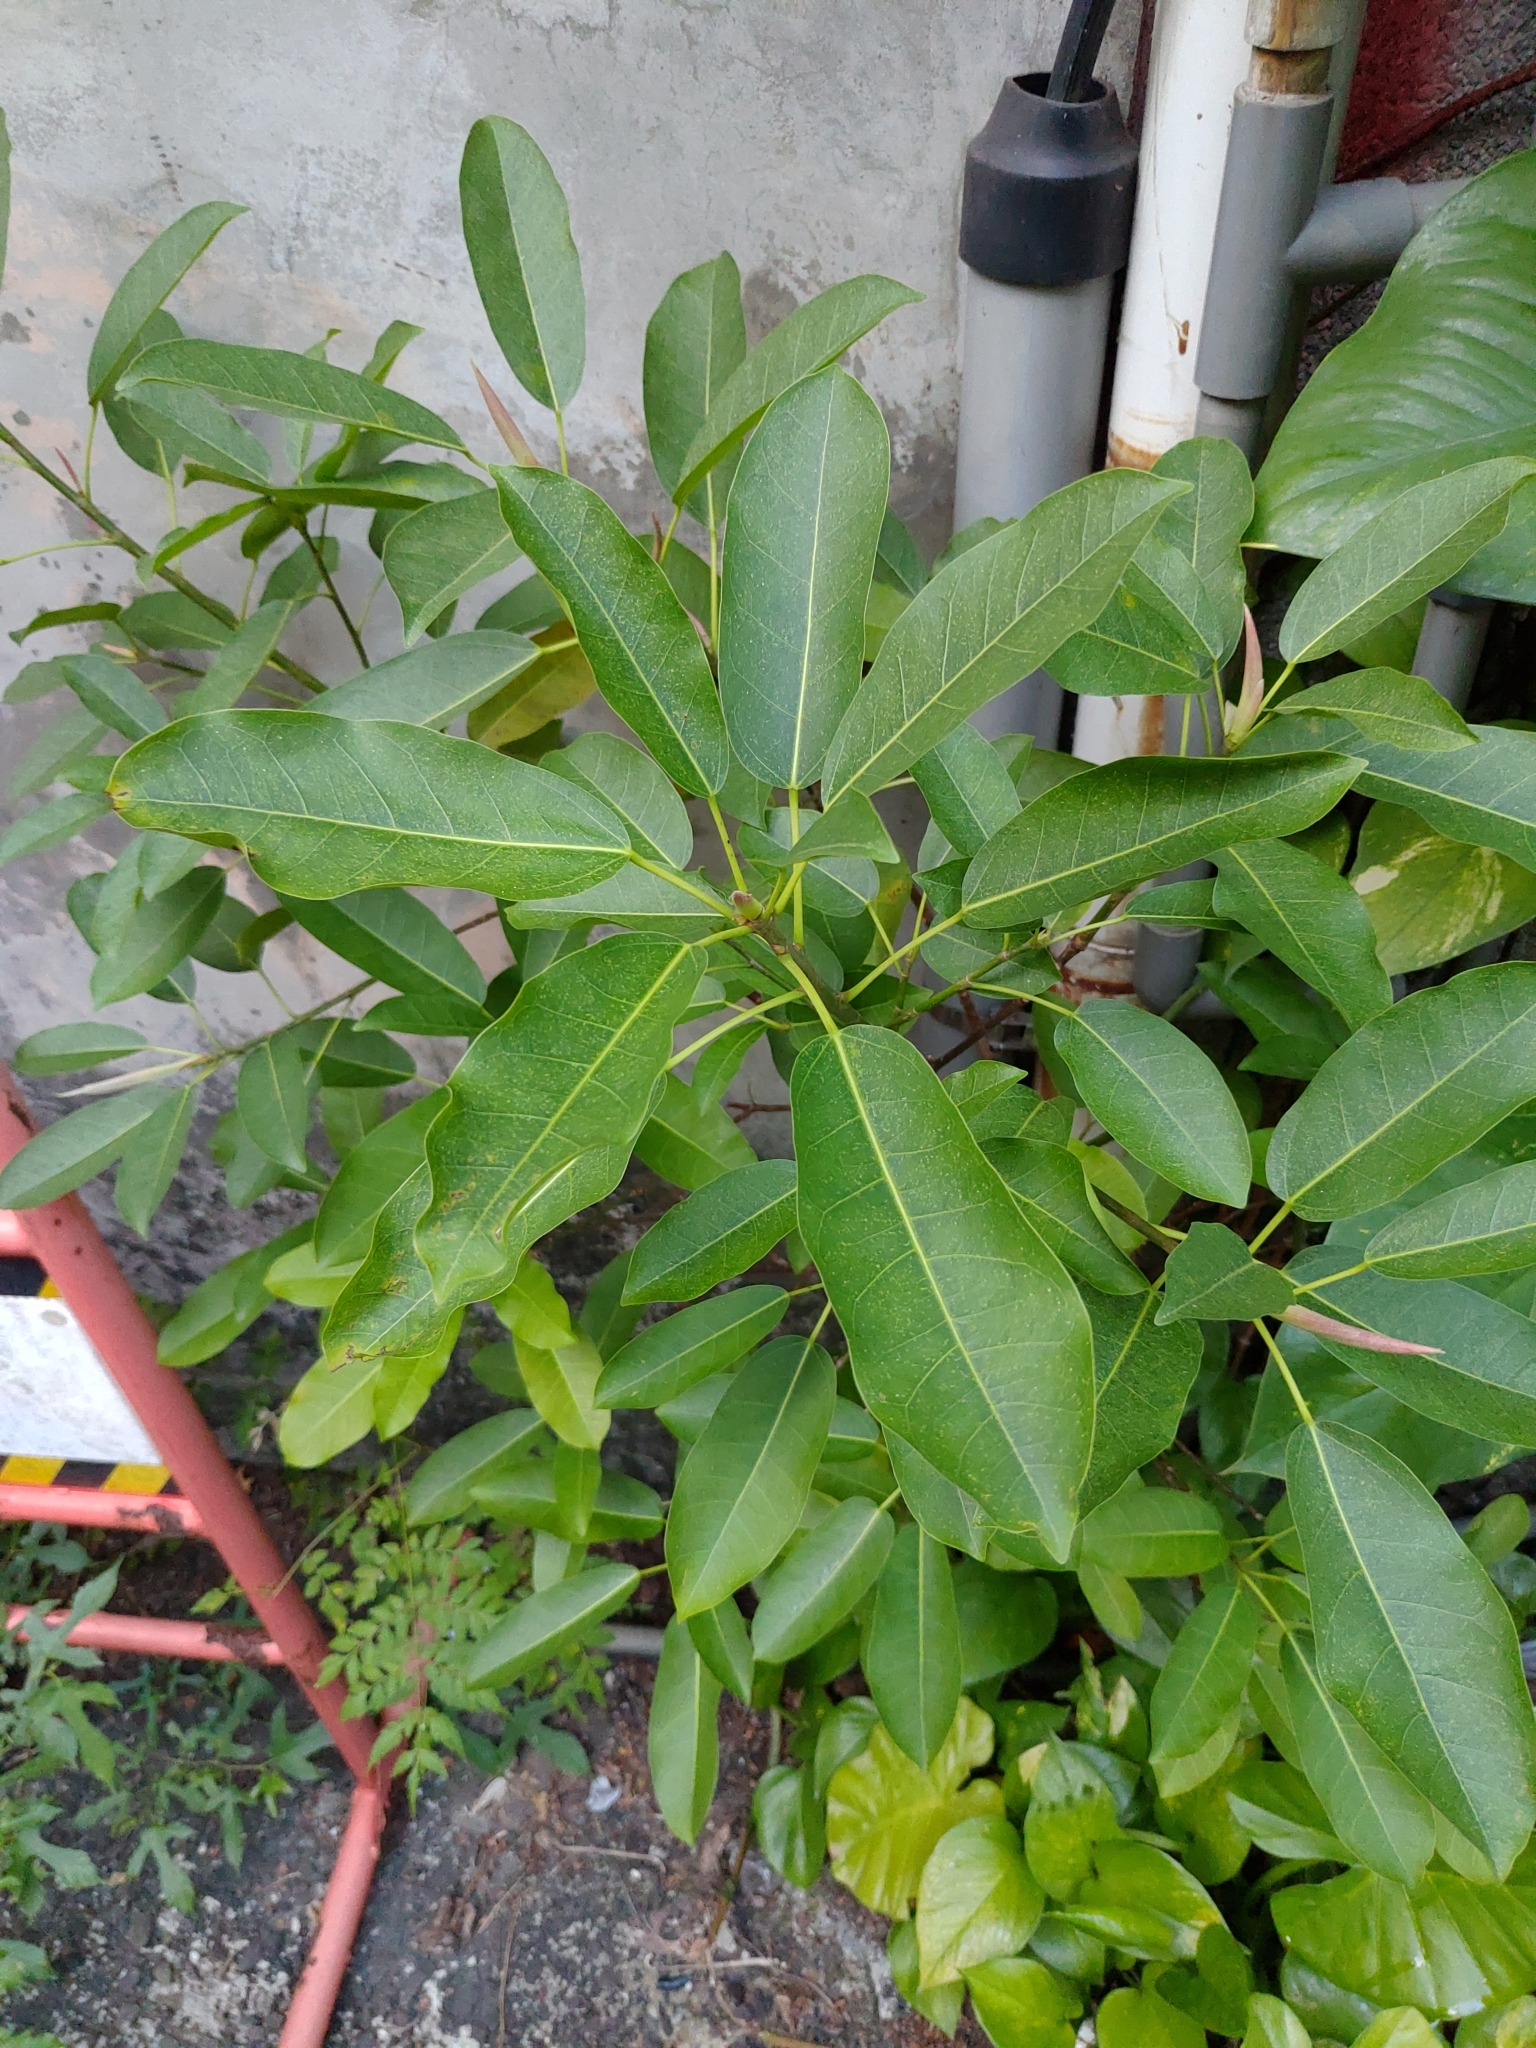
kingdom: Plantae
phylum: Tracheophyta
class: Magnoliopsida
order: Rosales
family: Moraceae
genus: Ficus
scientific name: Ficus subpisocarpa
